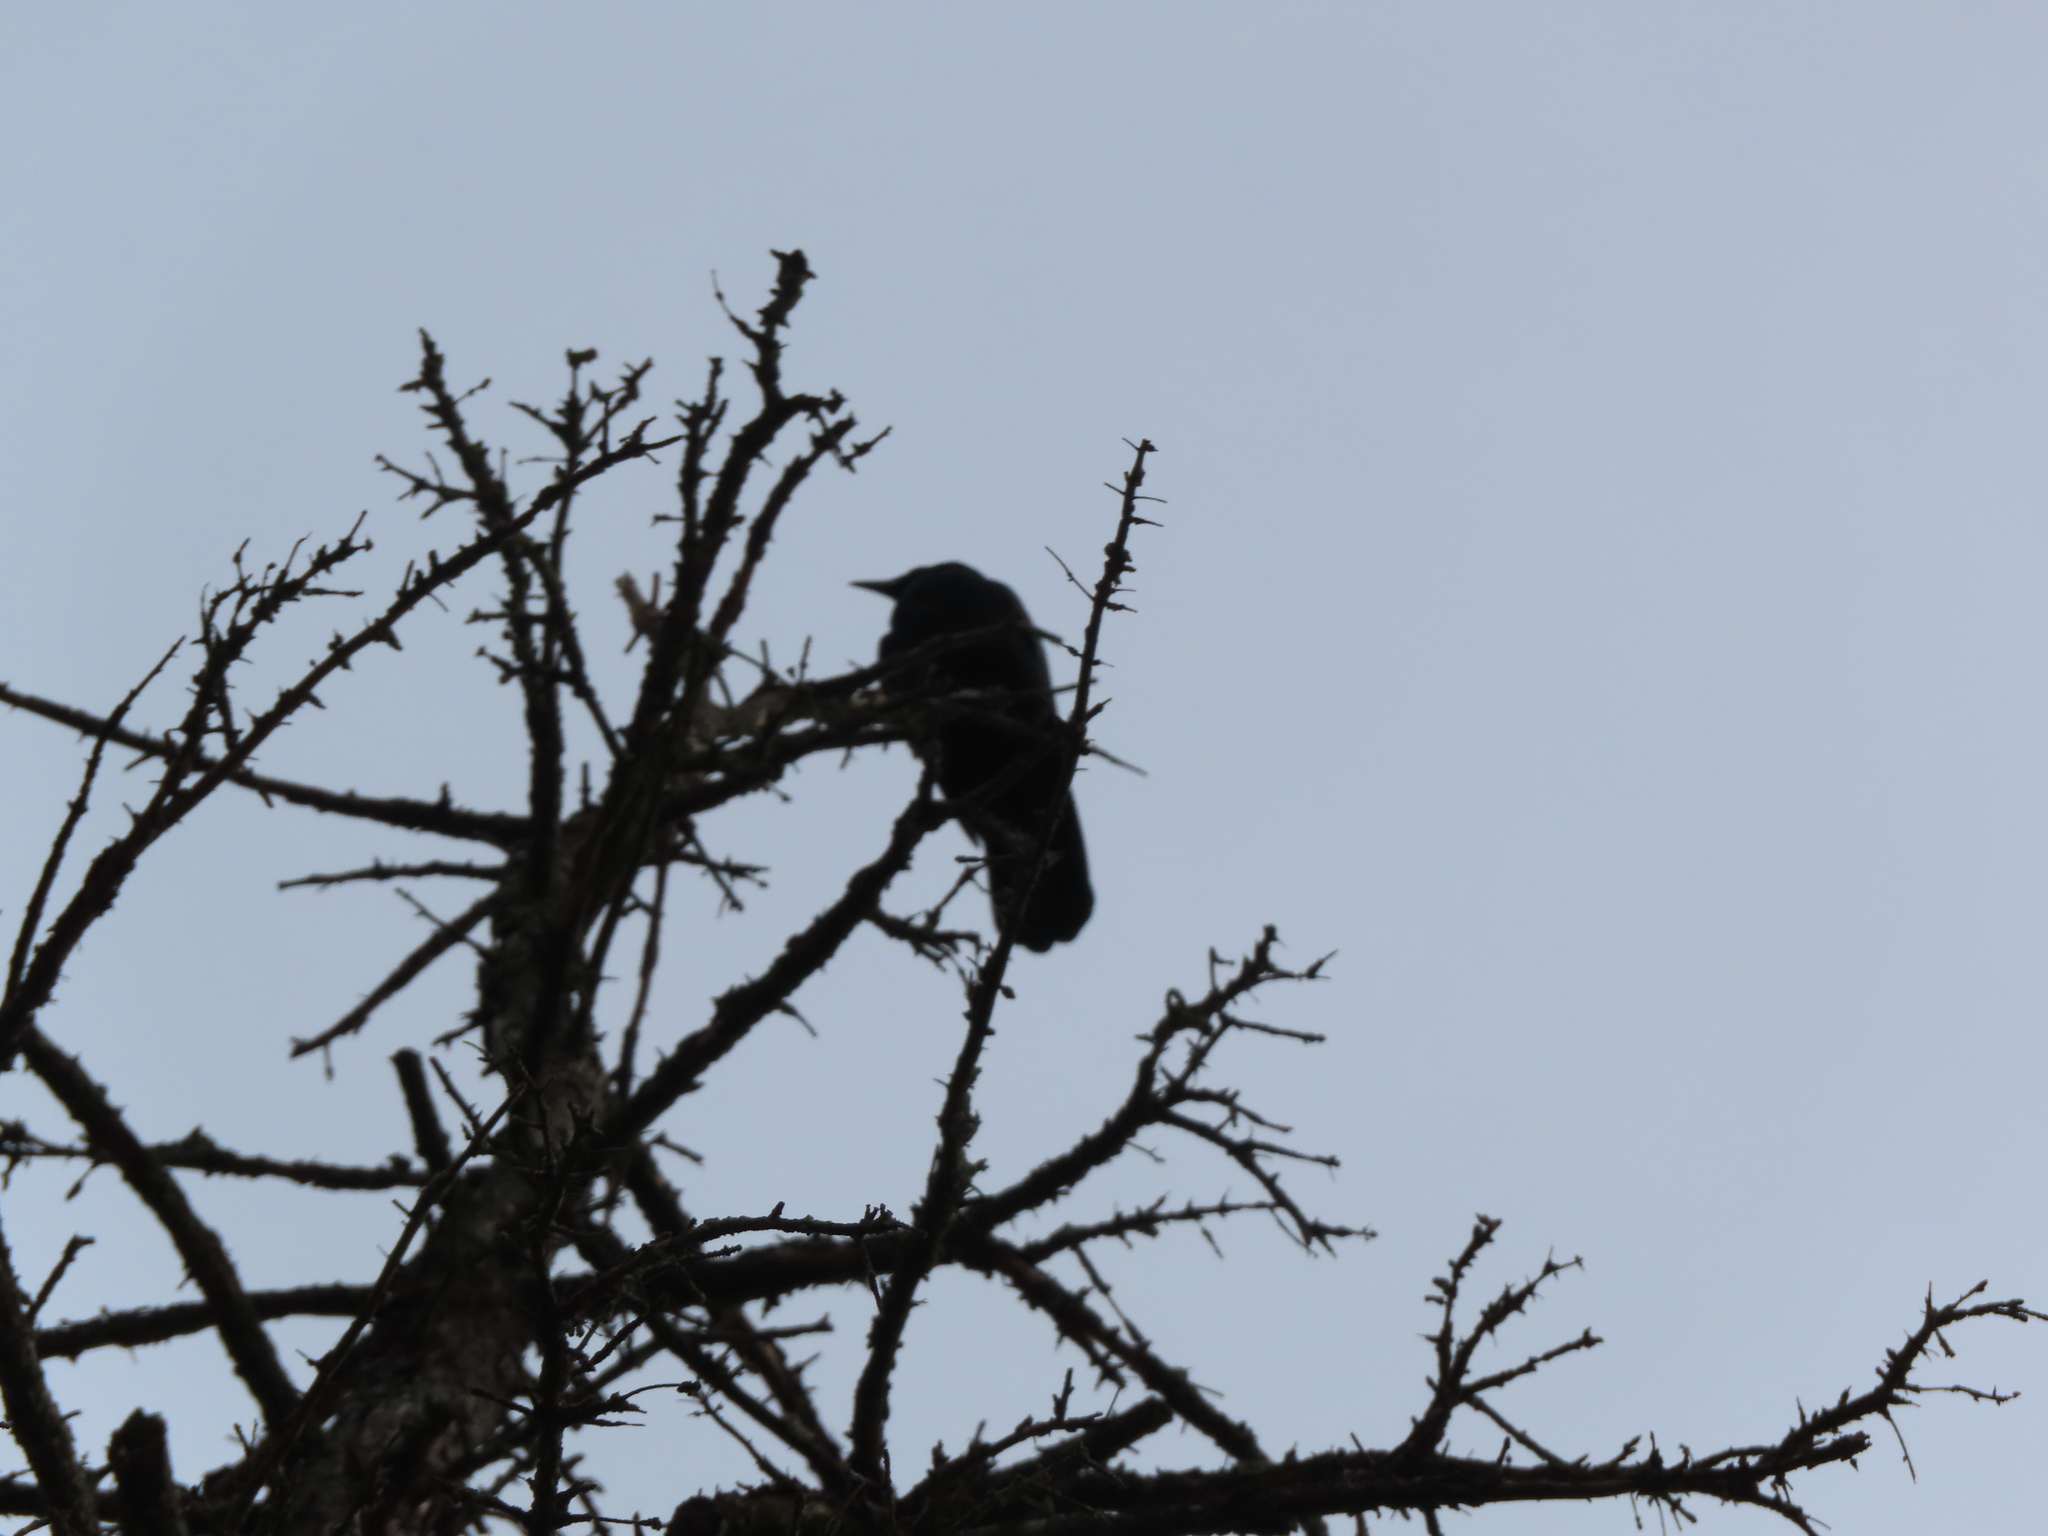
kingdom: Animalia
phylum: Chordata
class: Aves
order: Passeriformes
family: Corvidae
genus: Corvus
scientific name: Corvus brachyrhynchos
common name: American crow
